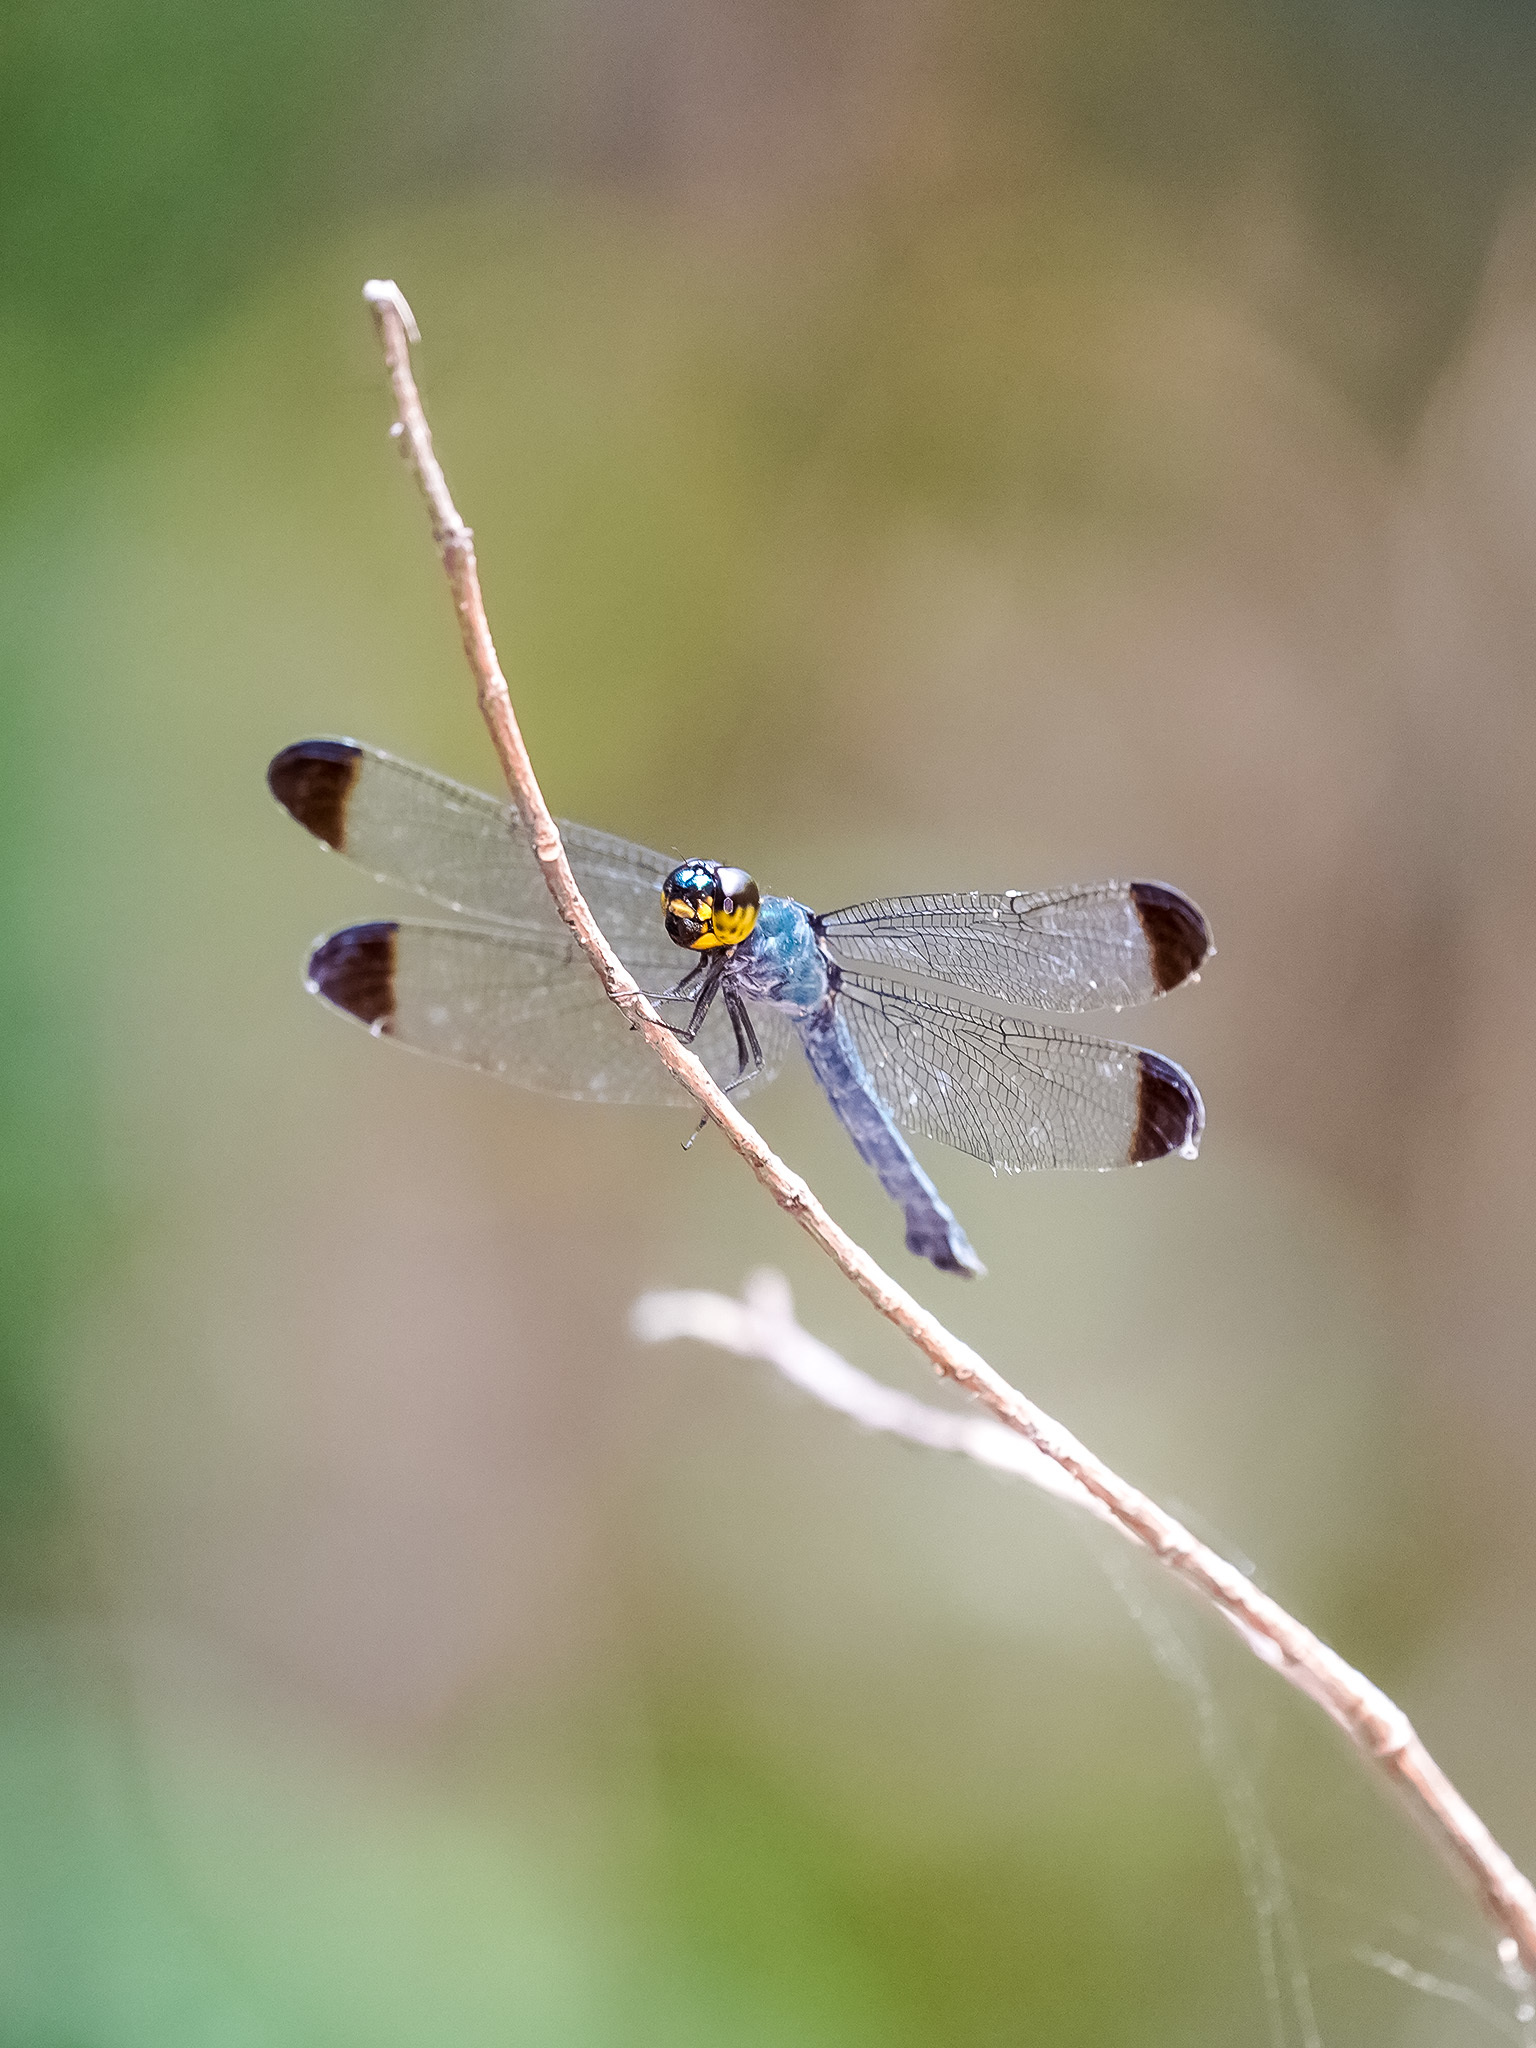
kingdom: Animalia
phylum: Arthropoda
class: Insecta
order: Odonata
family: Libellulidae
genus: Cratilla
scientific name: Cratilla metallica
